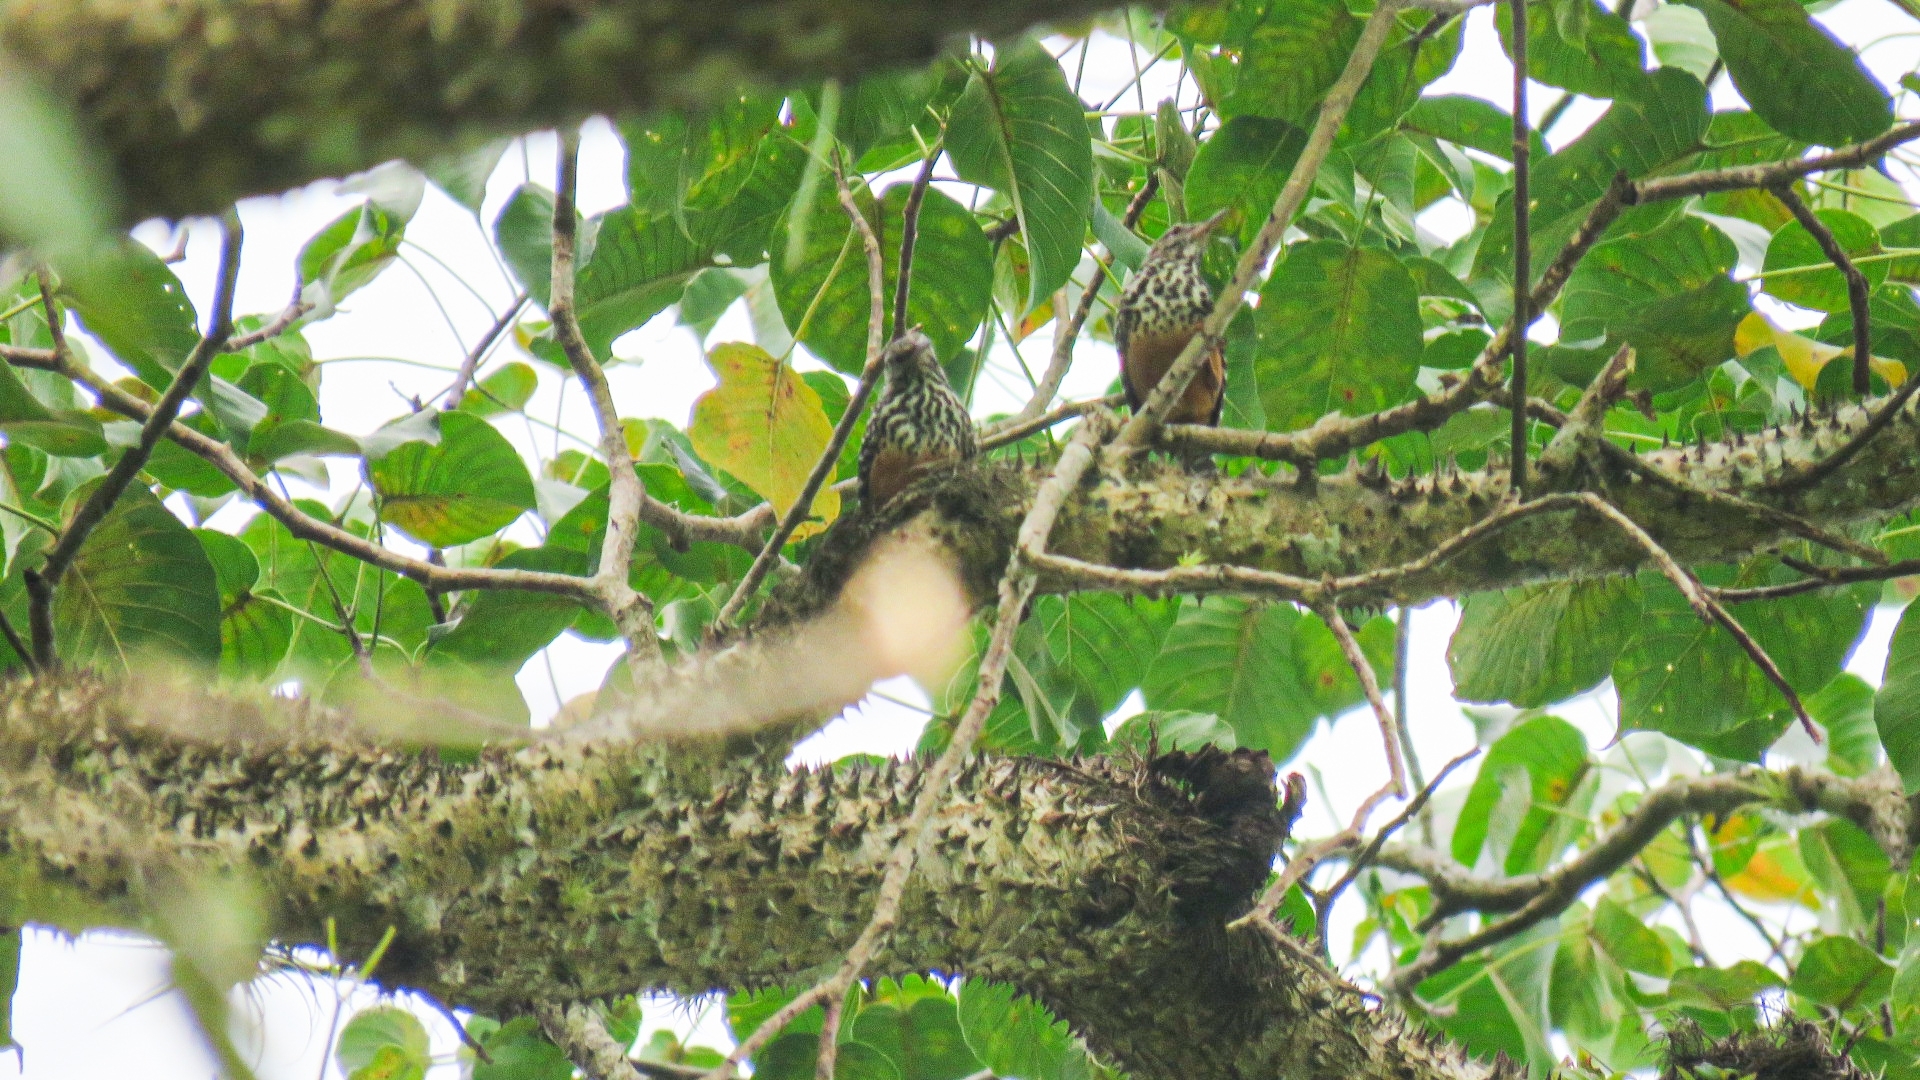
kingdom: Animalia
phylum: Chordata
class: Aves
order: Passeriformes
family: Troglodytidae
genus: Campylorhynchus
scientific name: Campylorhynchus zonatus
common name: Band-backed wren
